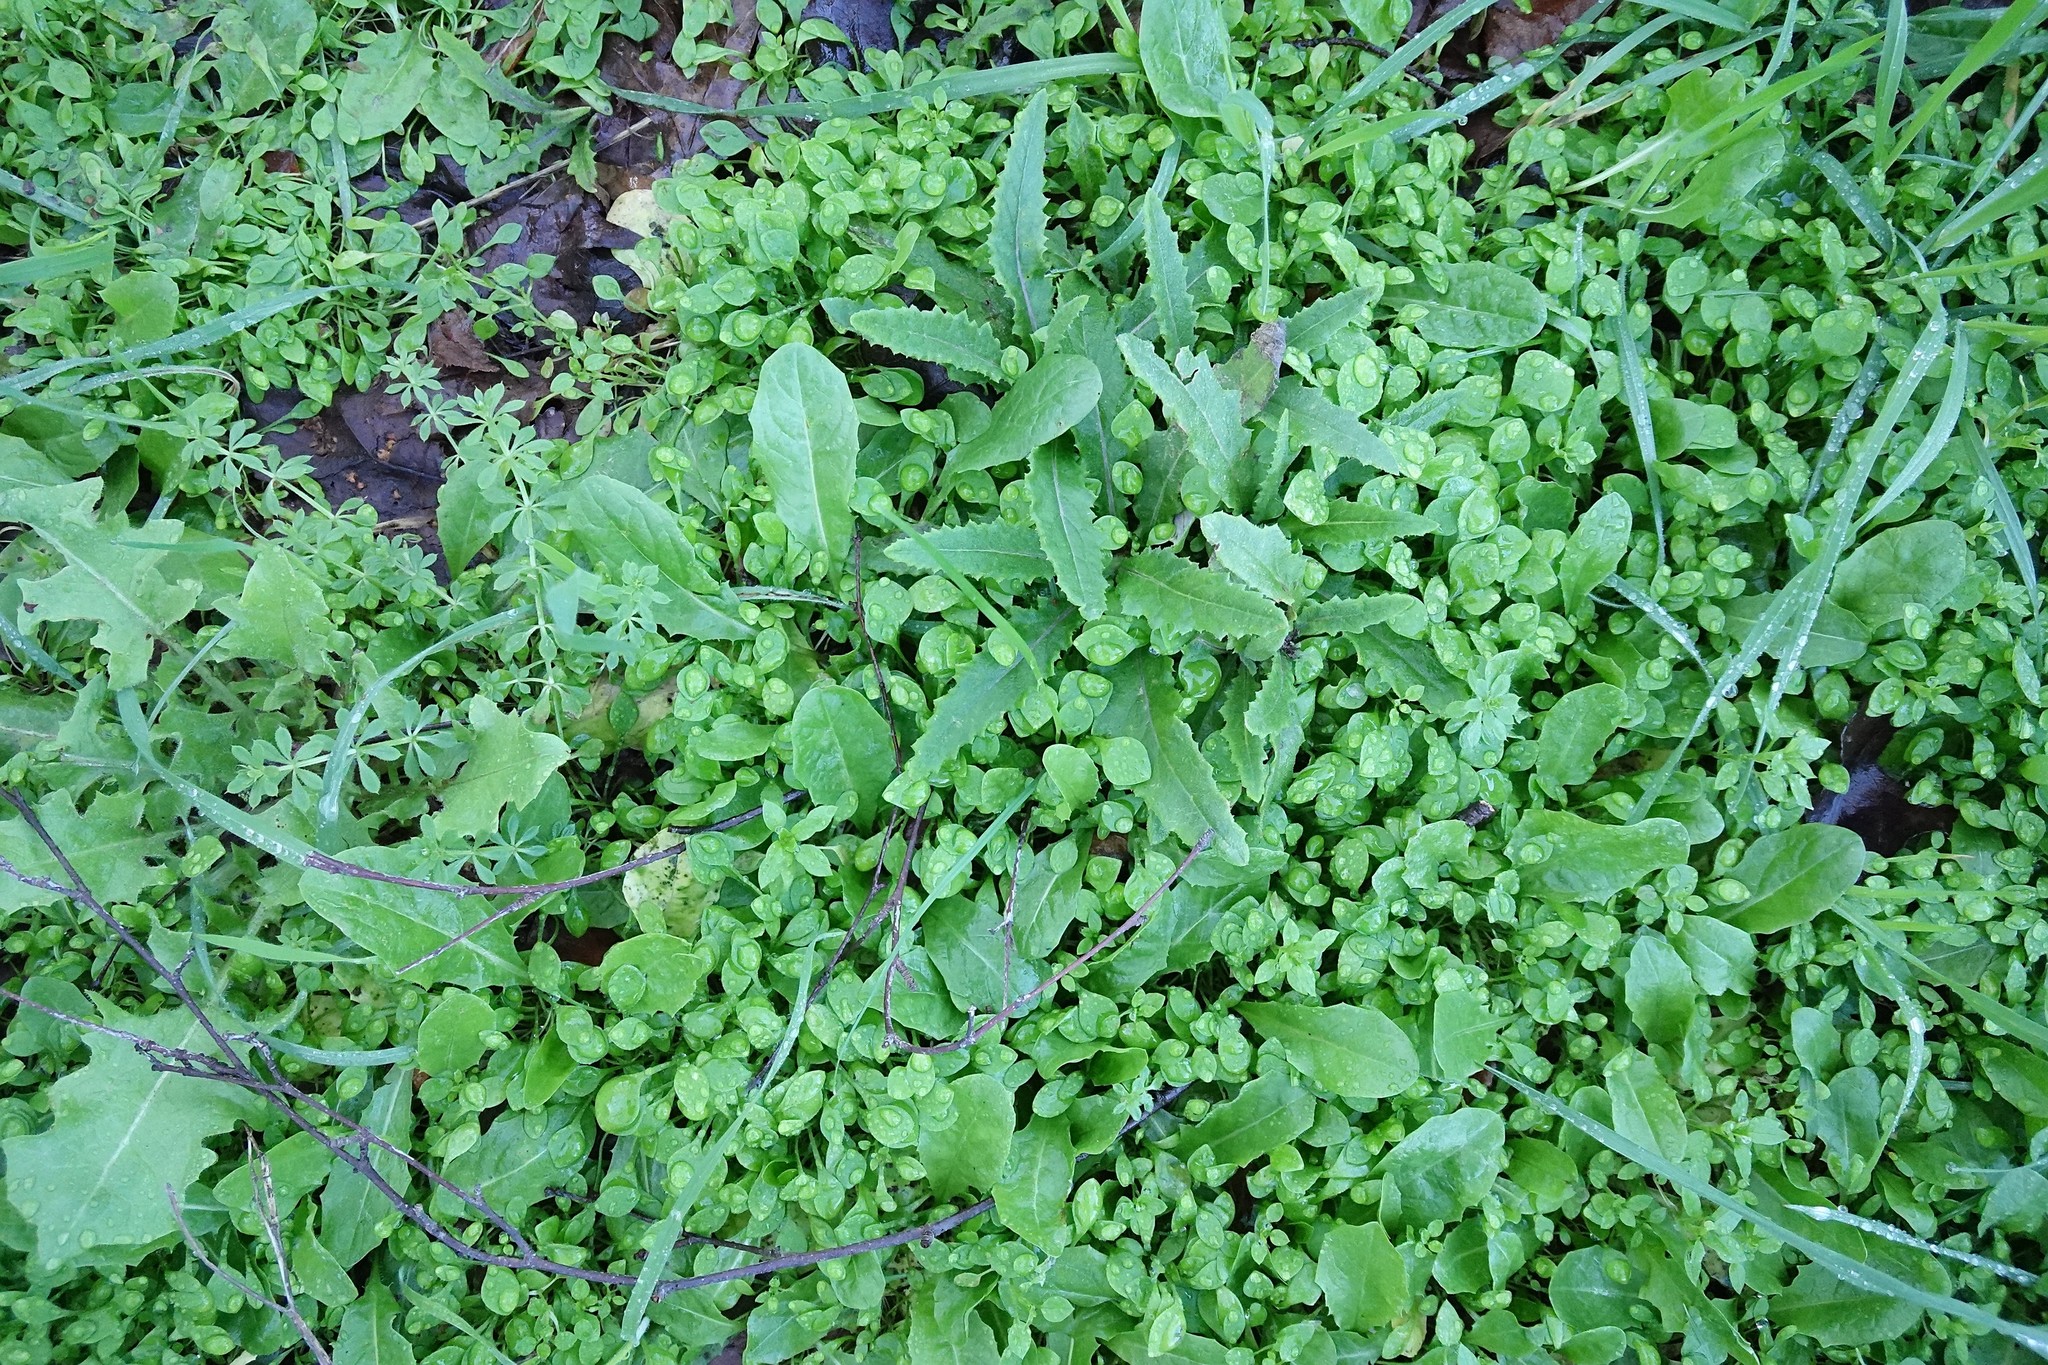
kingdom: Plantae
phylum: Tracheophyta
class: Magnoliopsida
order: Asterales
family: Asteraceae
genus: Senecio
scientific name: Senecio minimus
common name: Toothed fireweed
